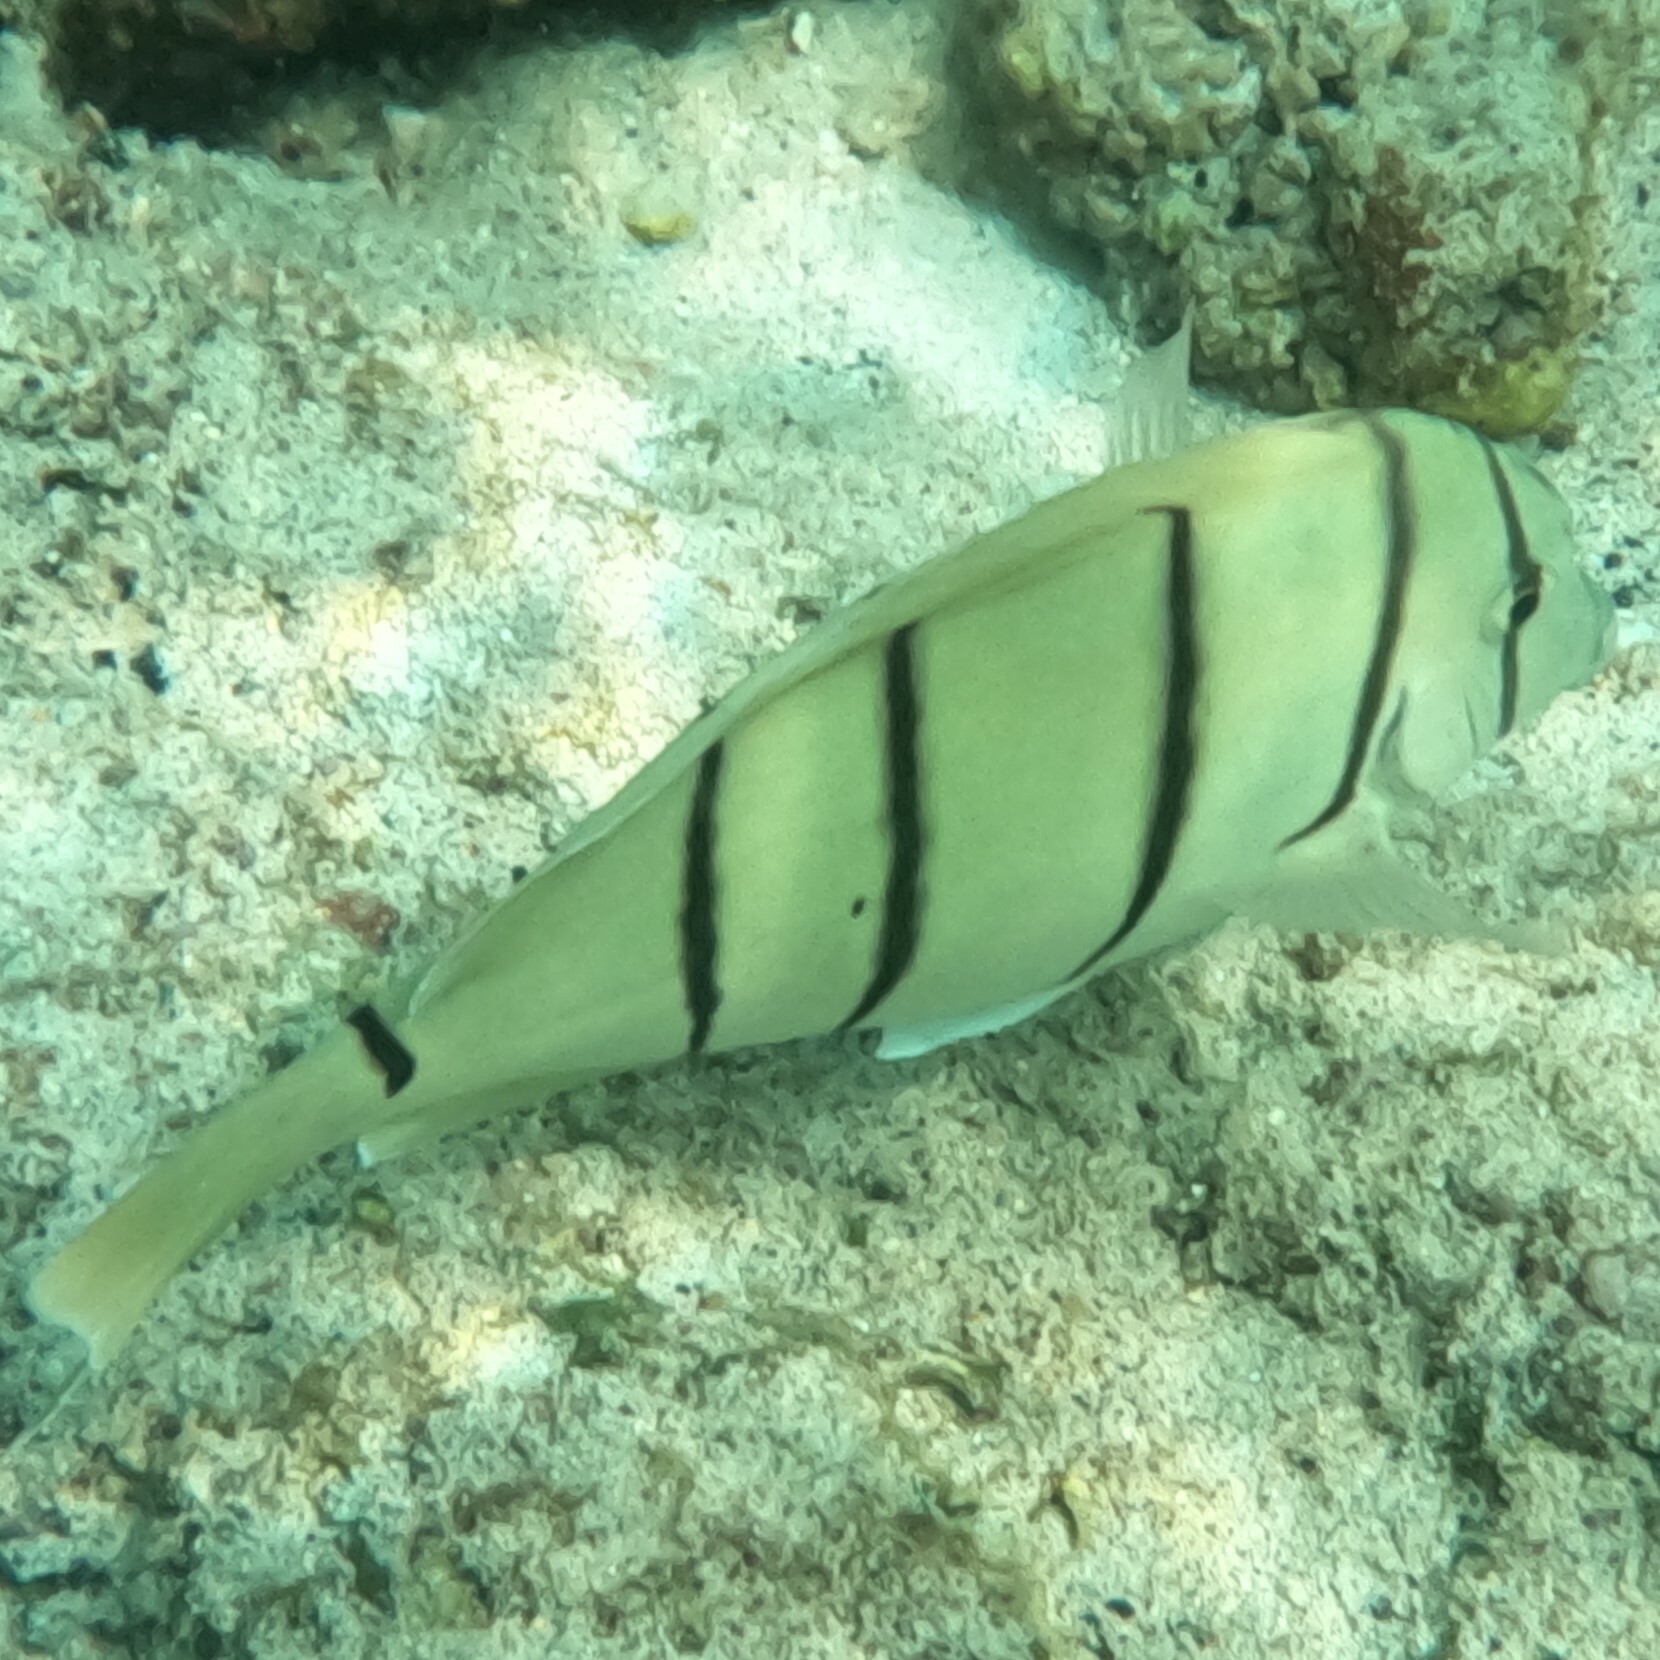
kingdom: Animalia
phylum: Chordata
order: Perciformes
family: Acanthuridae
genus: Acanthurus
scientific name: Acanthurus triostegus
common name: Convict surgeonfish
